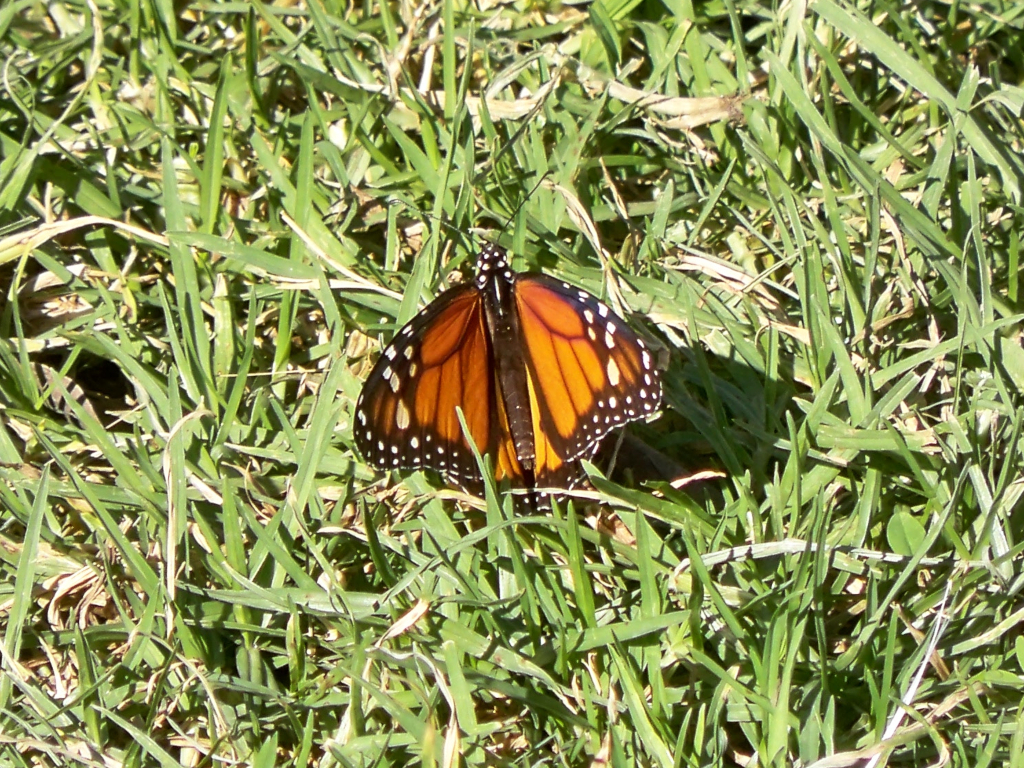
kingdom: Animalia
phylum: Arthropoda
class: Insecta
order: Lepidoptera
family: Nymphalidae
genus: Danaus
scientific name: Danaus plexippus
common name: Monarch
